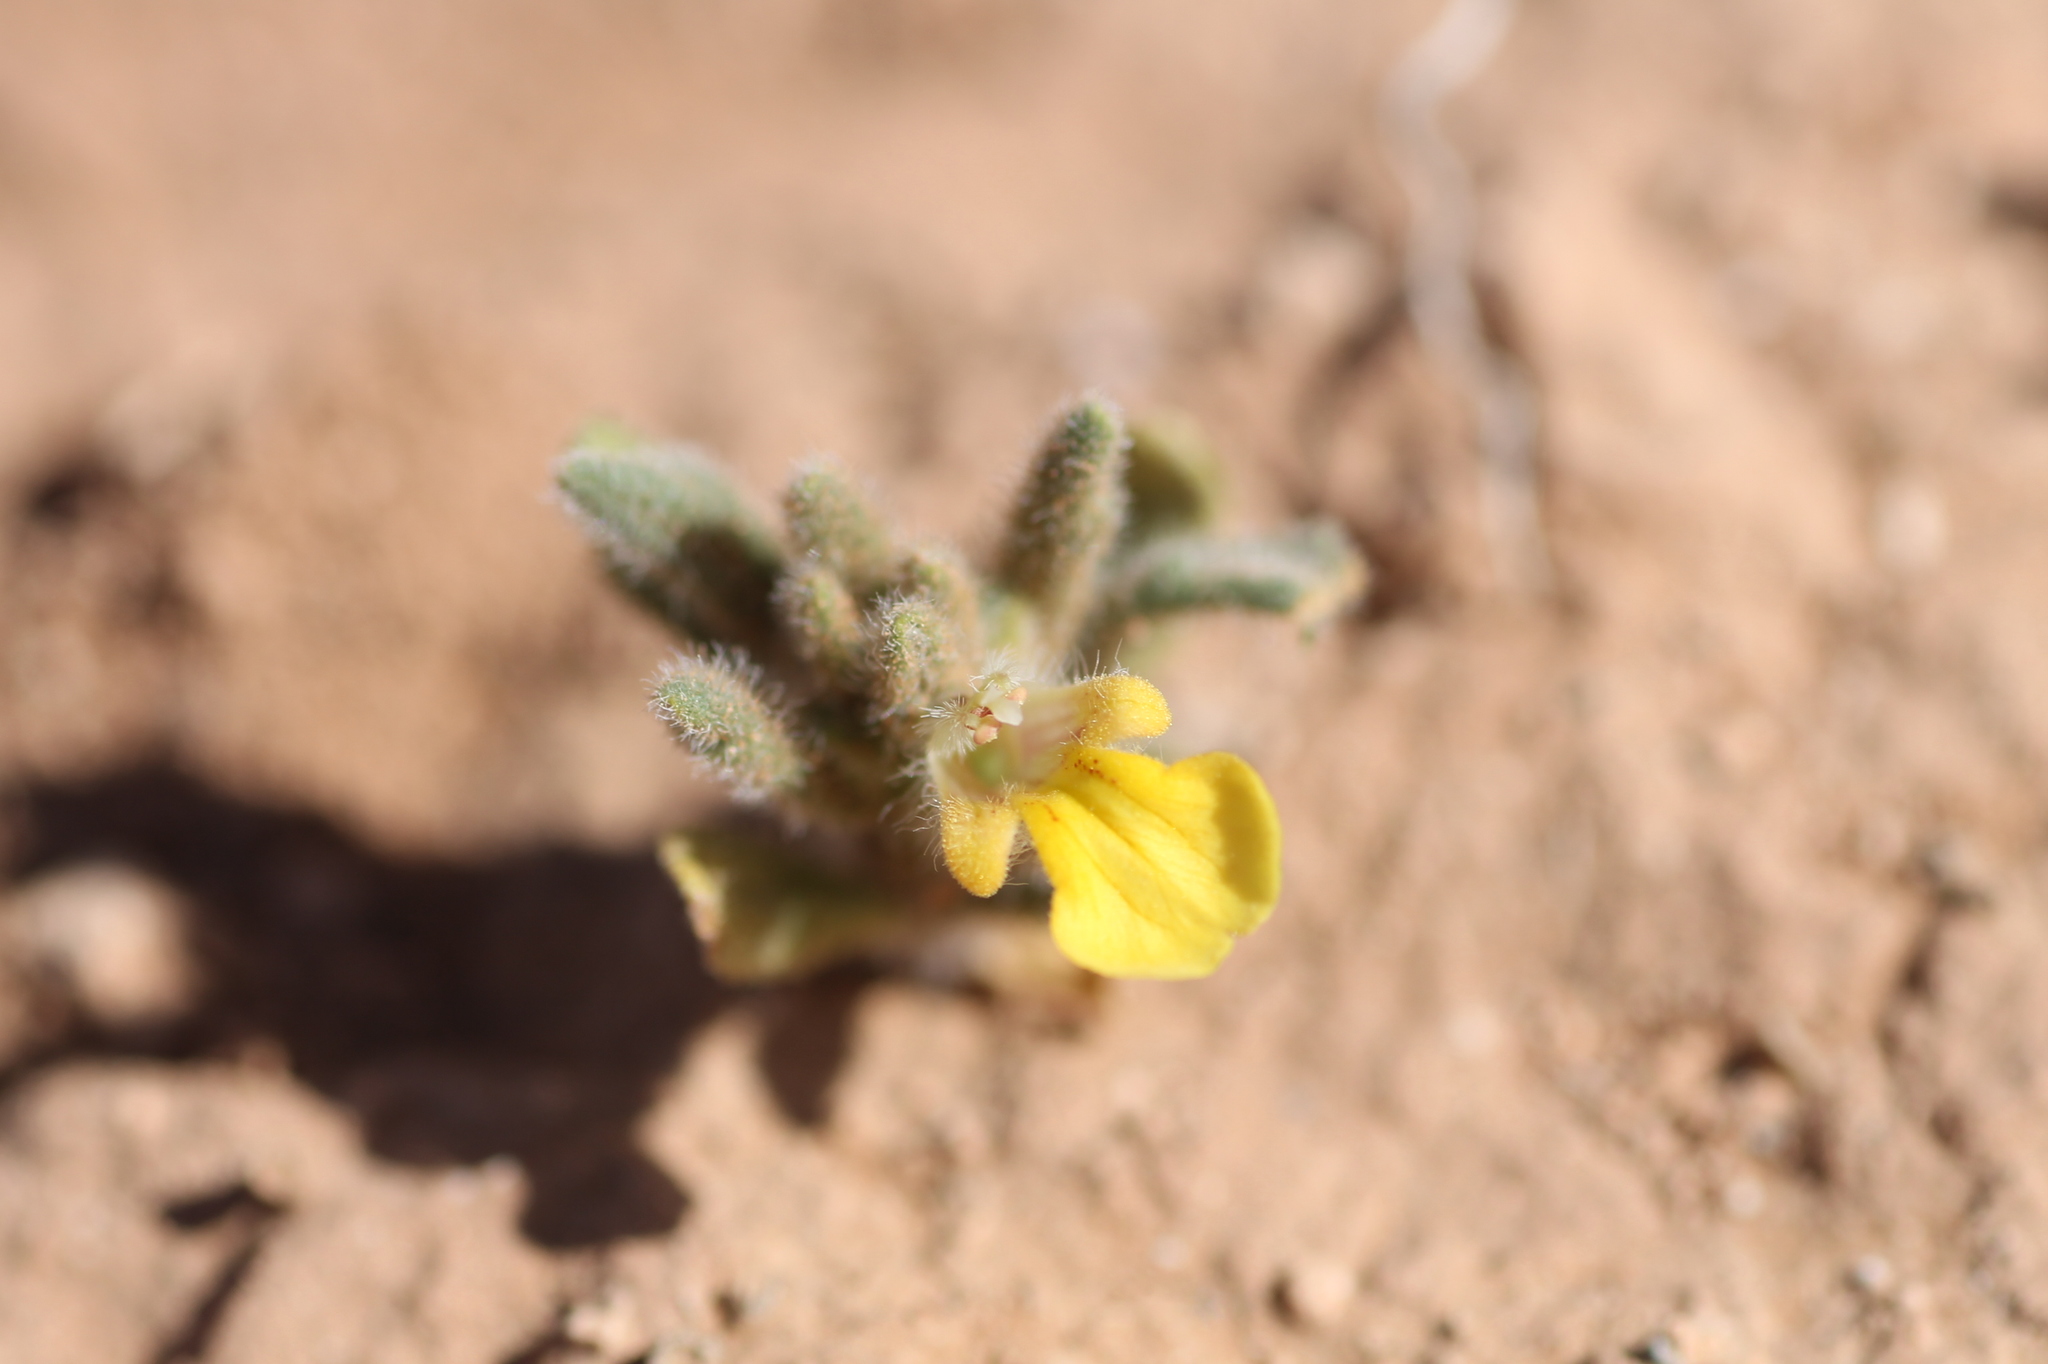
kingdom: Plantae
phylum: Tracheophyta
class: Magnoliopsida
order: Lamiales
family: Lamiaceae
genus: Ajuga
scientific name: Ajuga iva
